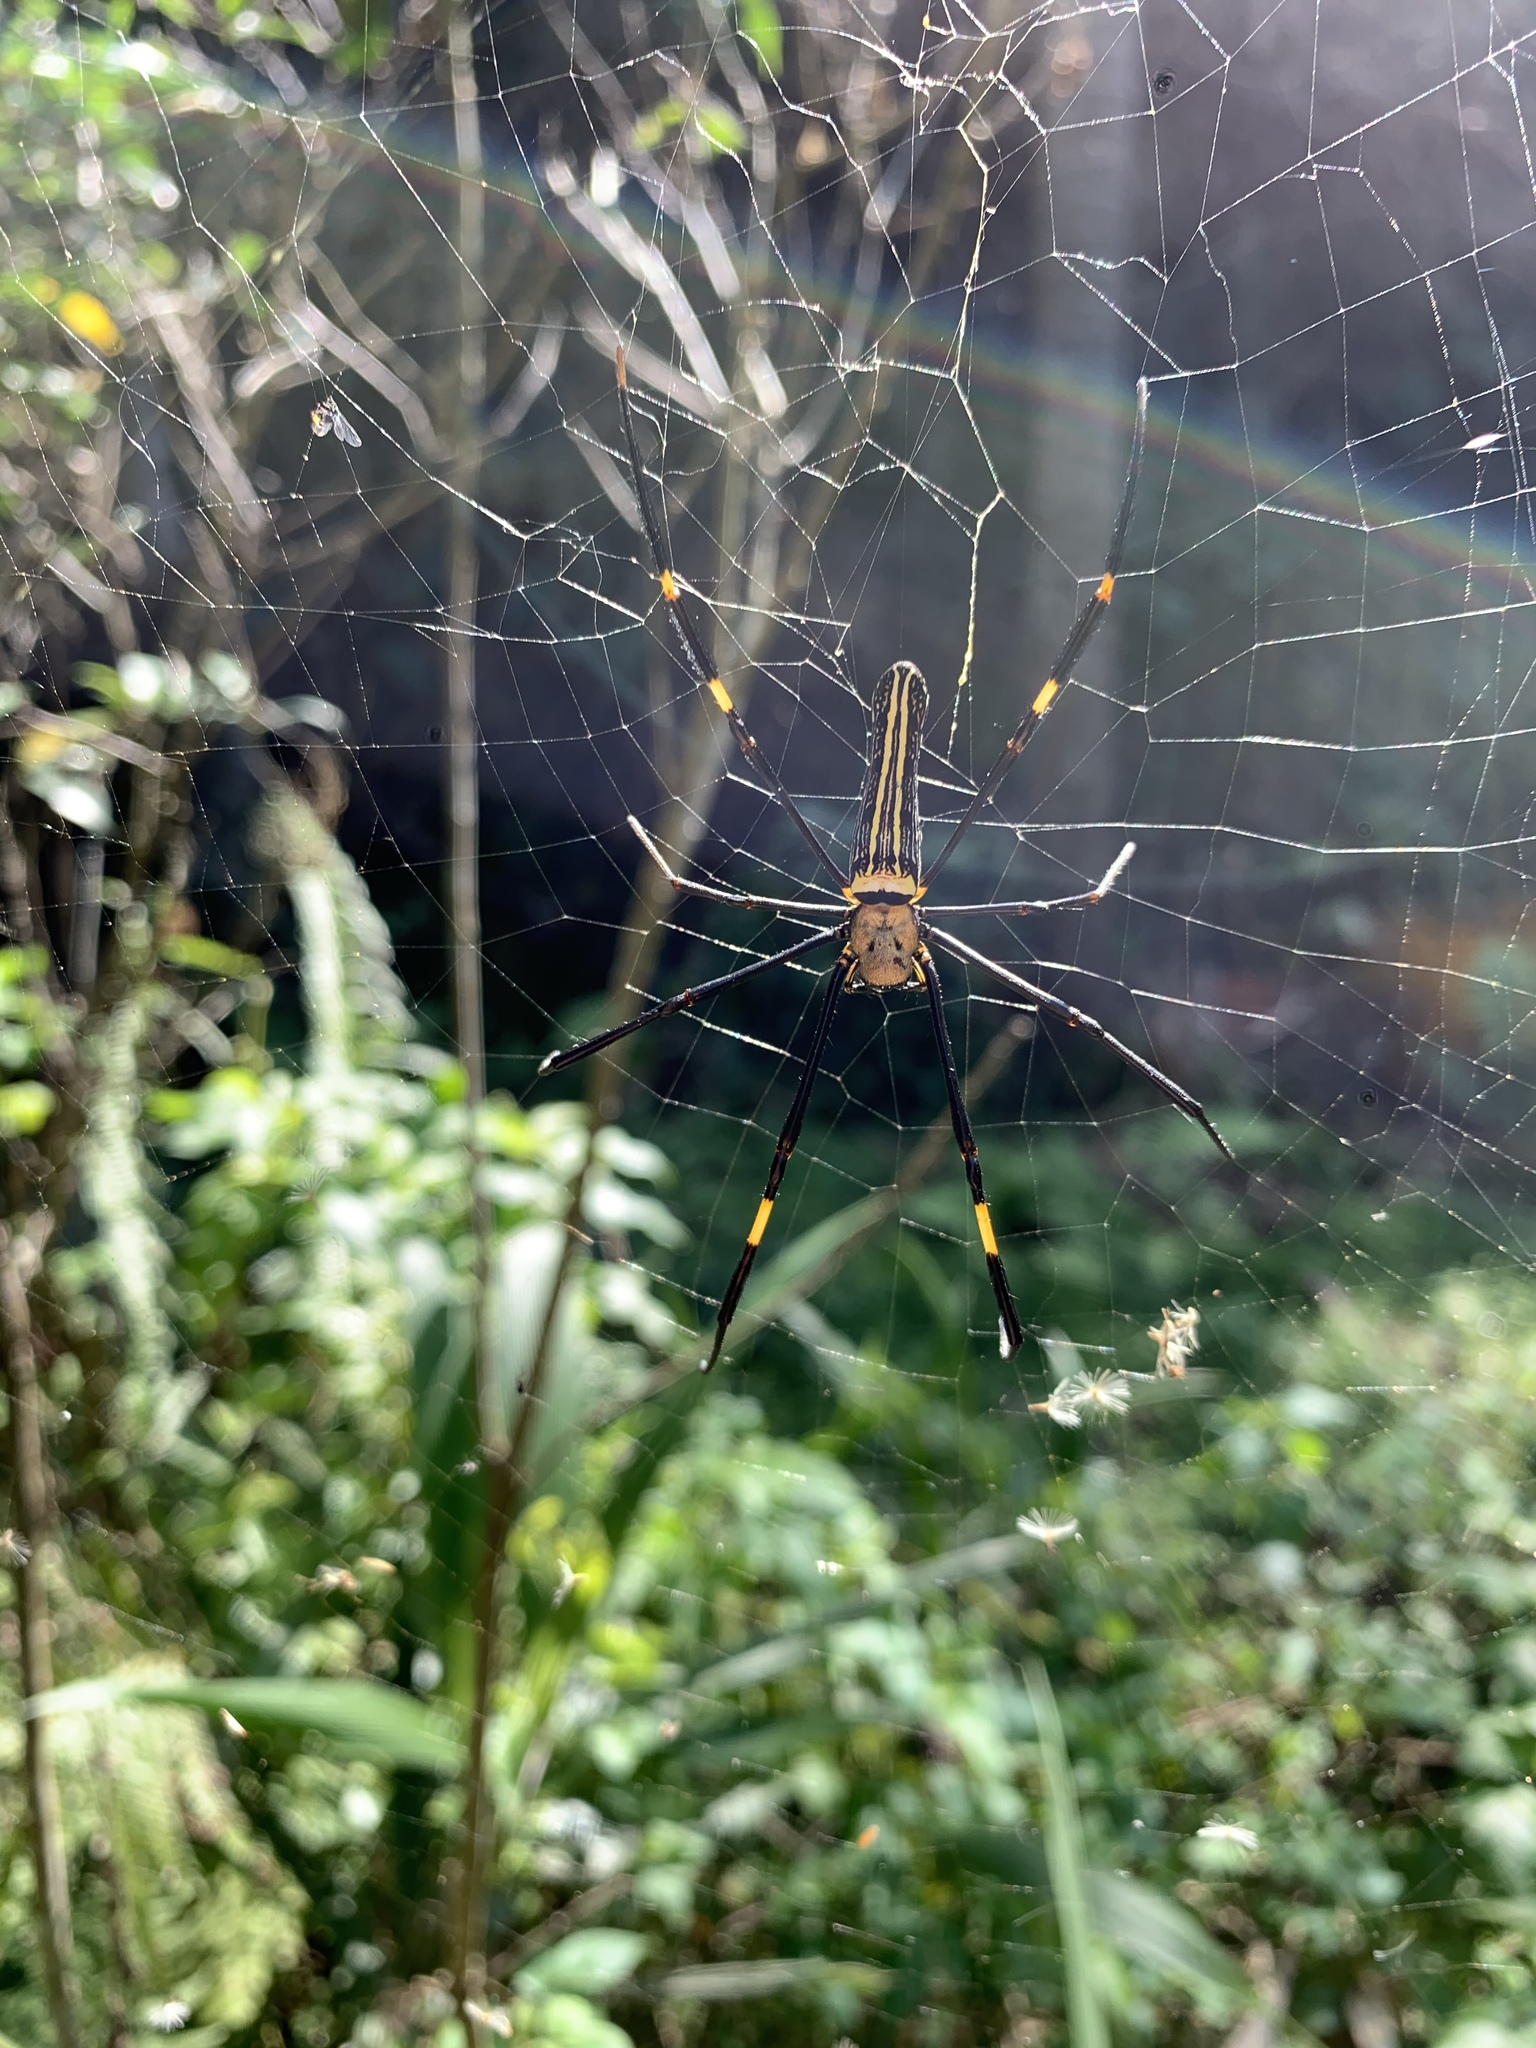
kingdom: Animalia
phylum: Arthropoda
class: Arachnida
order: Araneae
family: Araneidae
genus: Nephila
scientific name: Nephila pilipes
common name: Giant golden orb weaver
